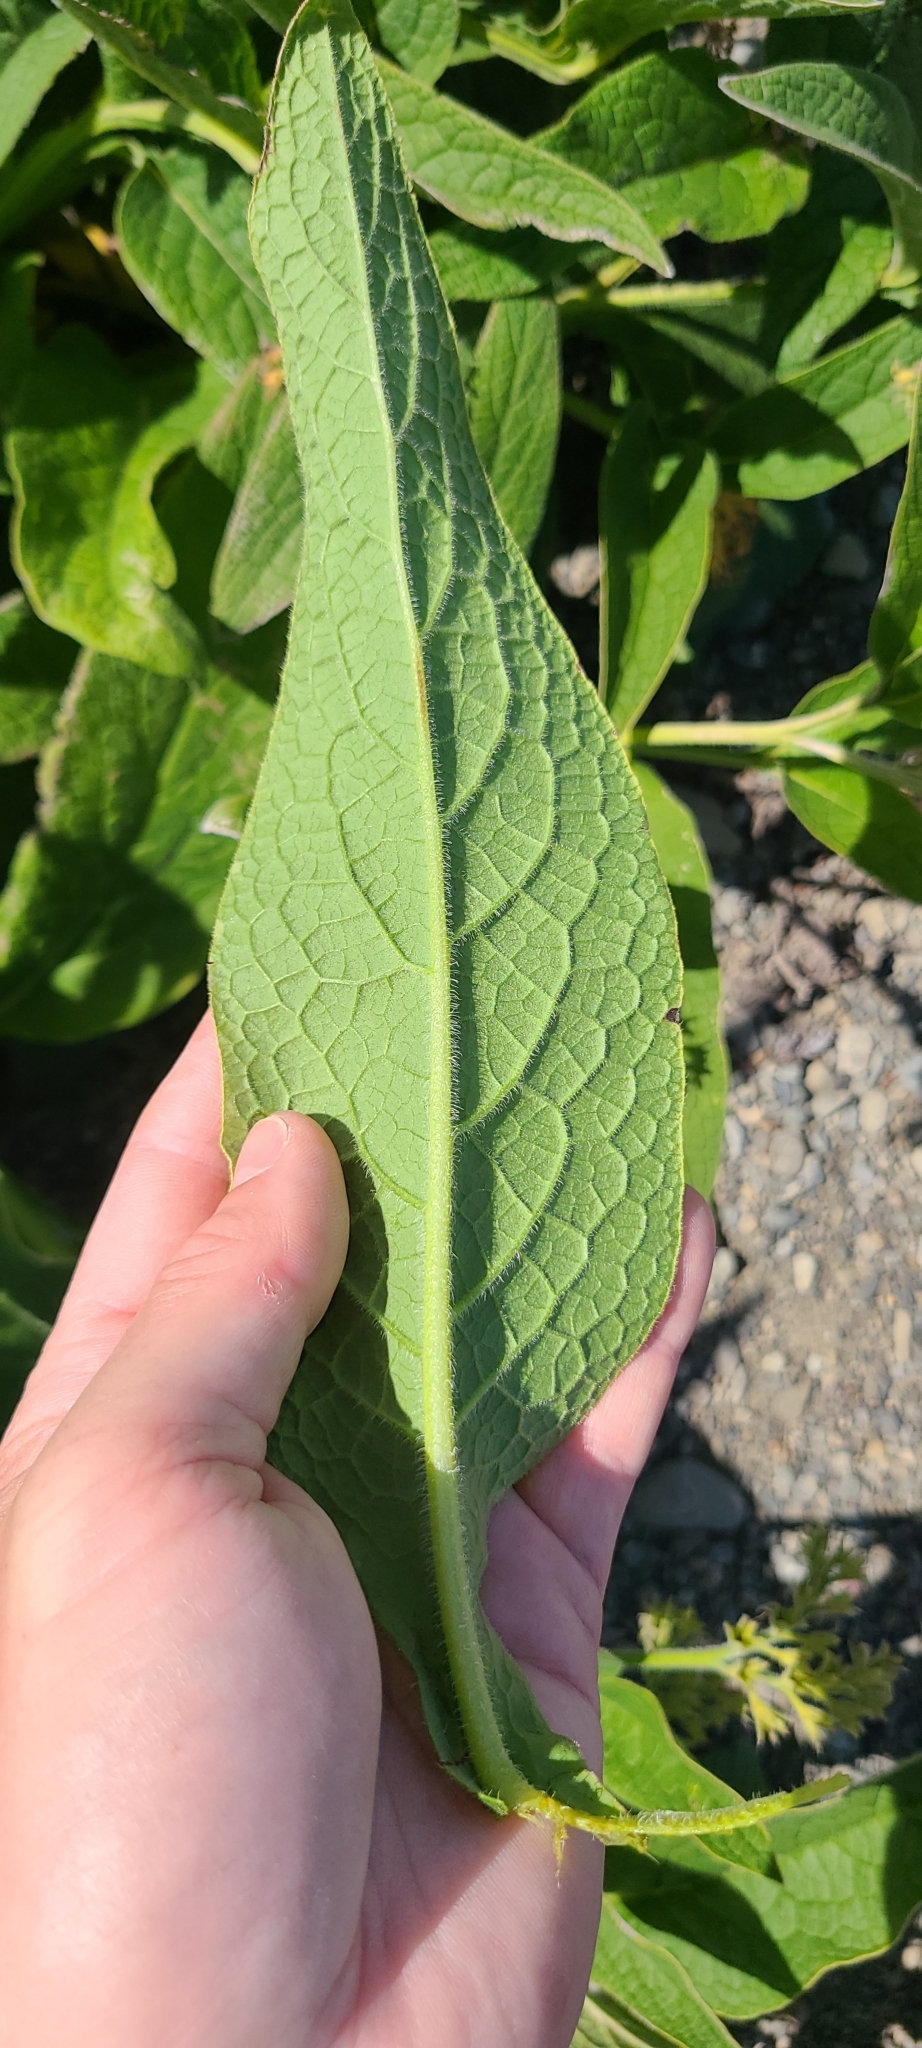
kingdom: Plantae
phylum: Tracheophyta
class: Magnoliopsida
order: Boraginales
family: Boraginaceae
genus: Symphytum
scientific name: Symphytum officinale
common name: Common comfrey
